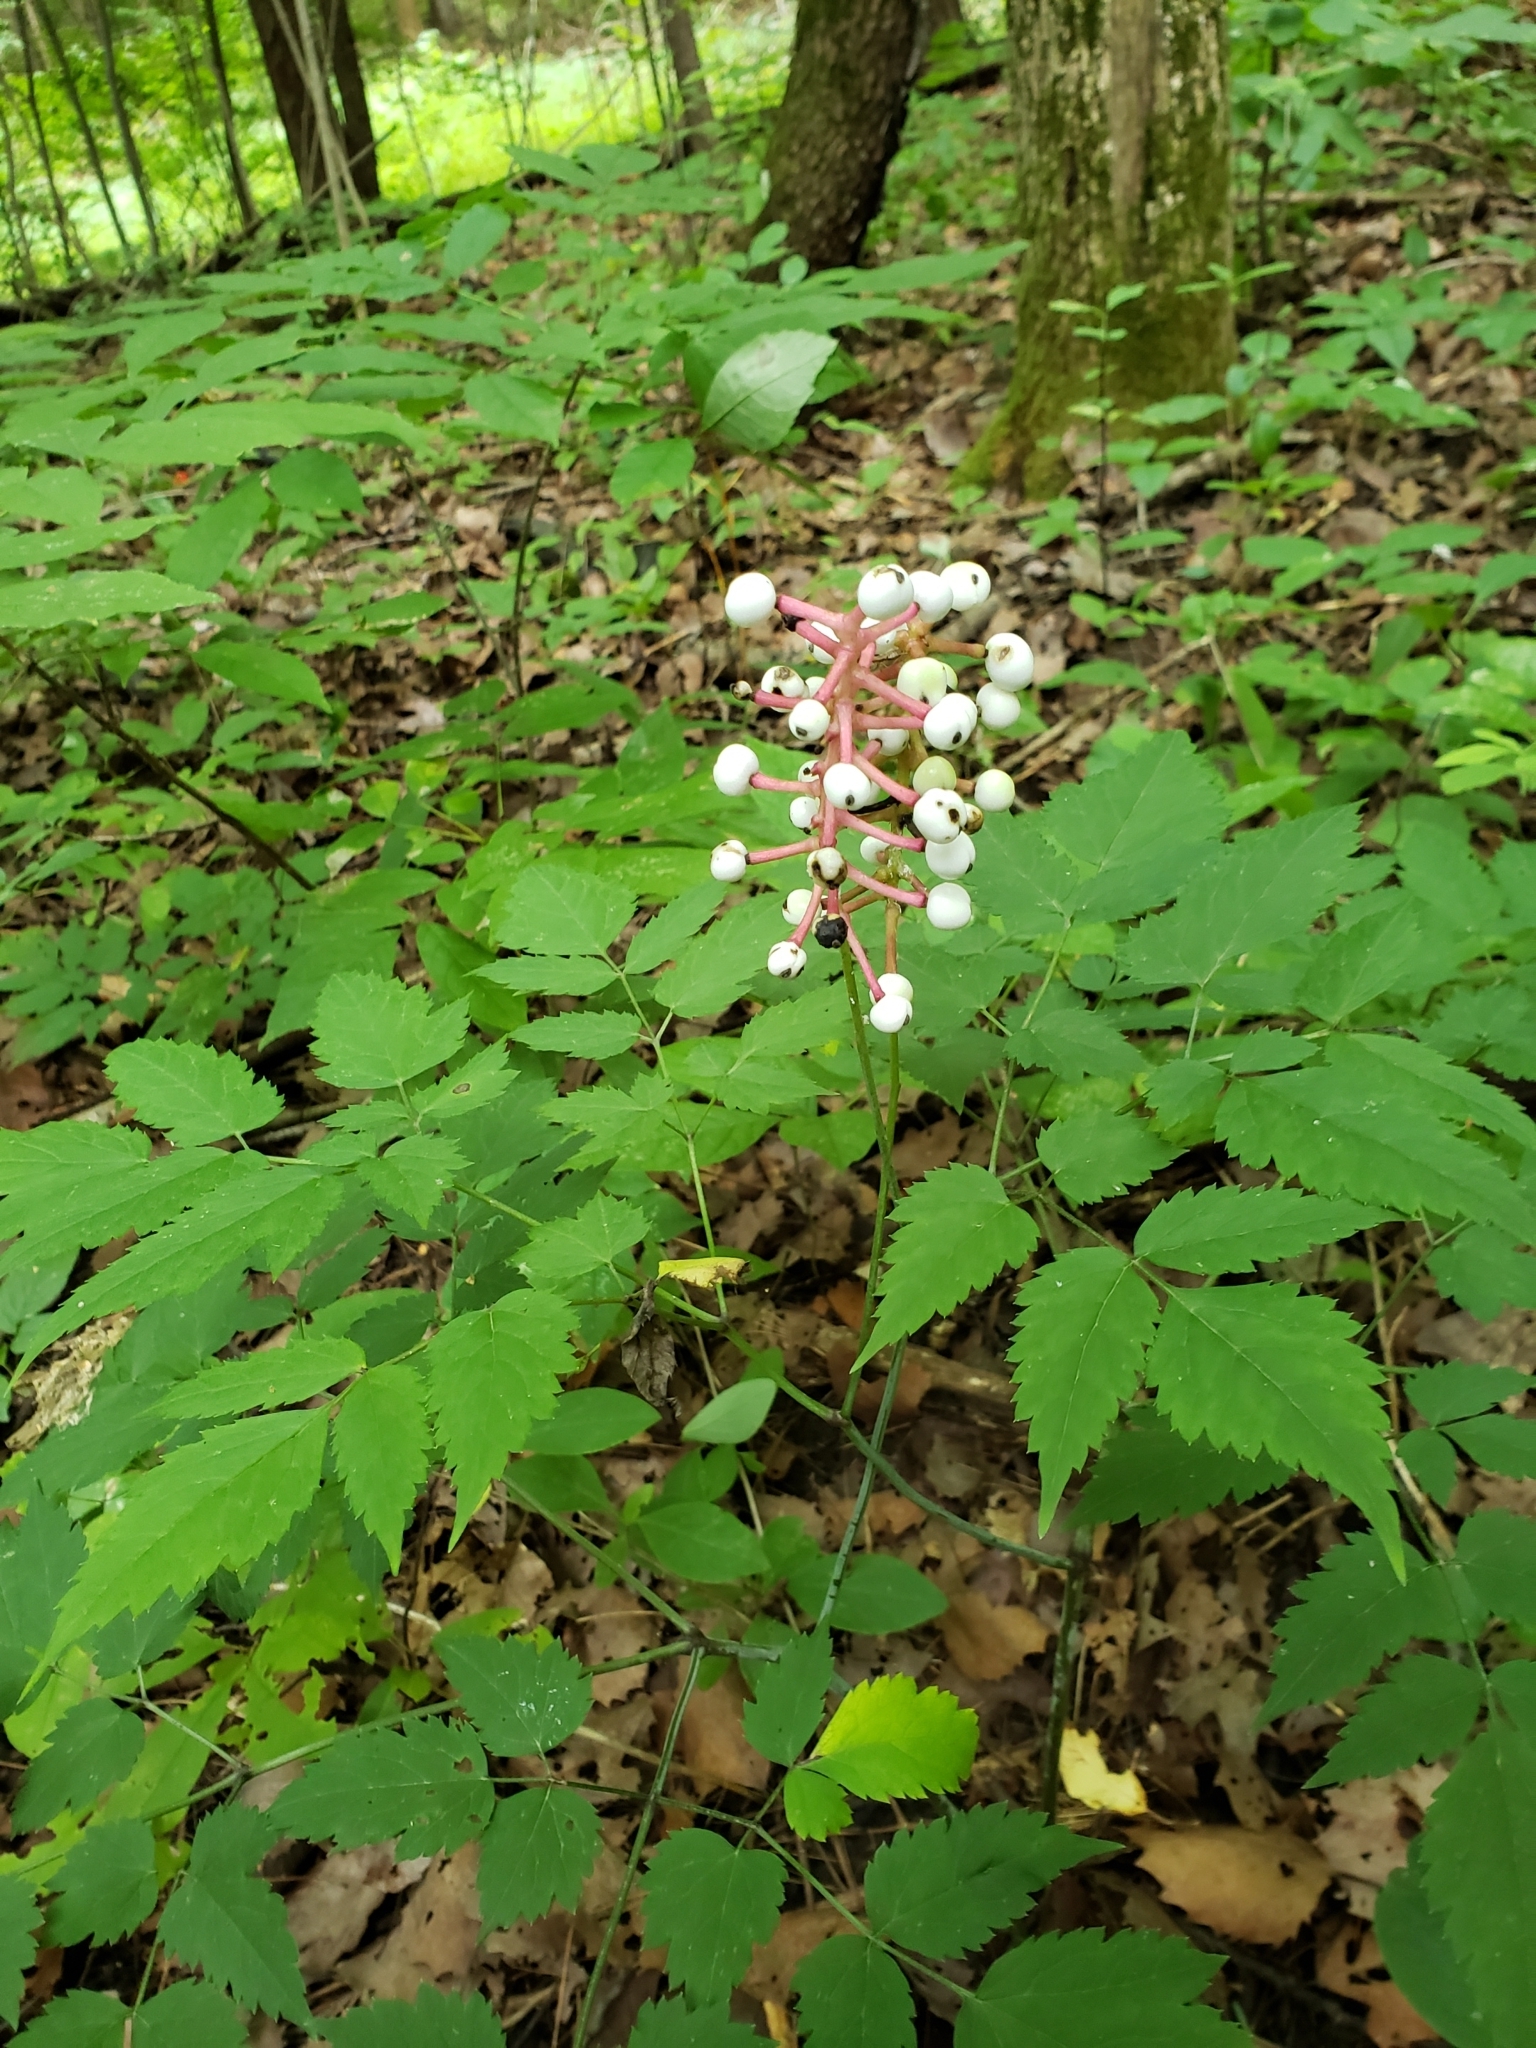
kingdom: Plantae
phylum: Tracheophyta
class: Magnoliopsida
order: Ranunculales
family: Ranunculaceae
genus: Actaea
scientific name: Actaea pachypoda
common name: Doll's-eyes
